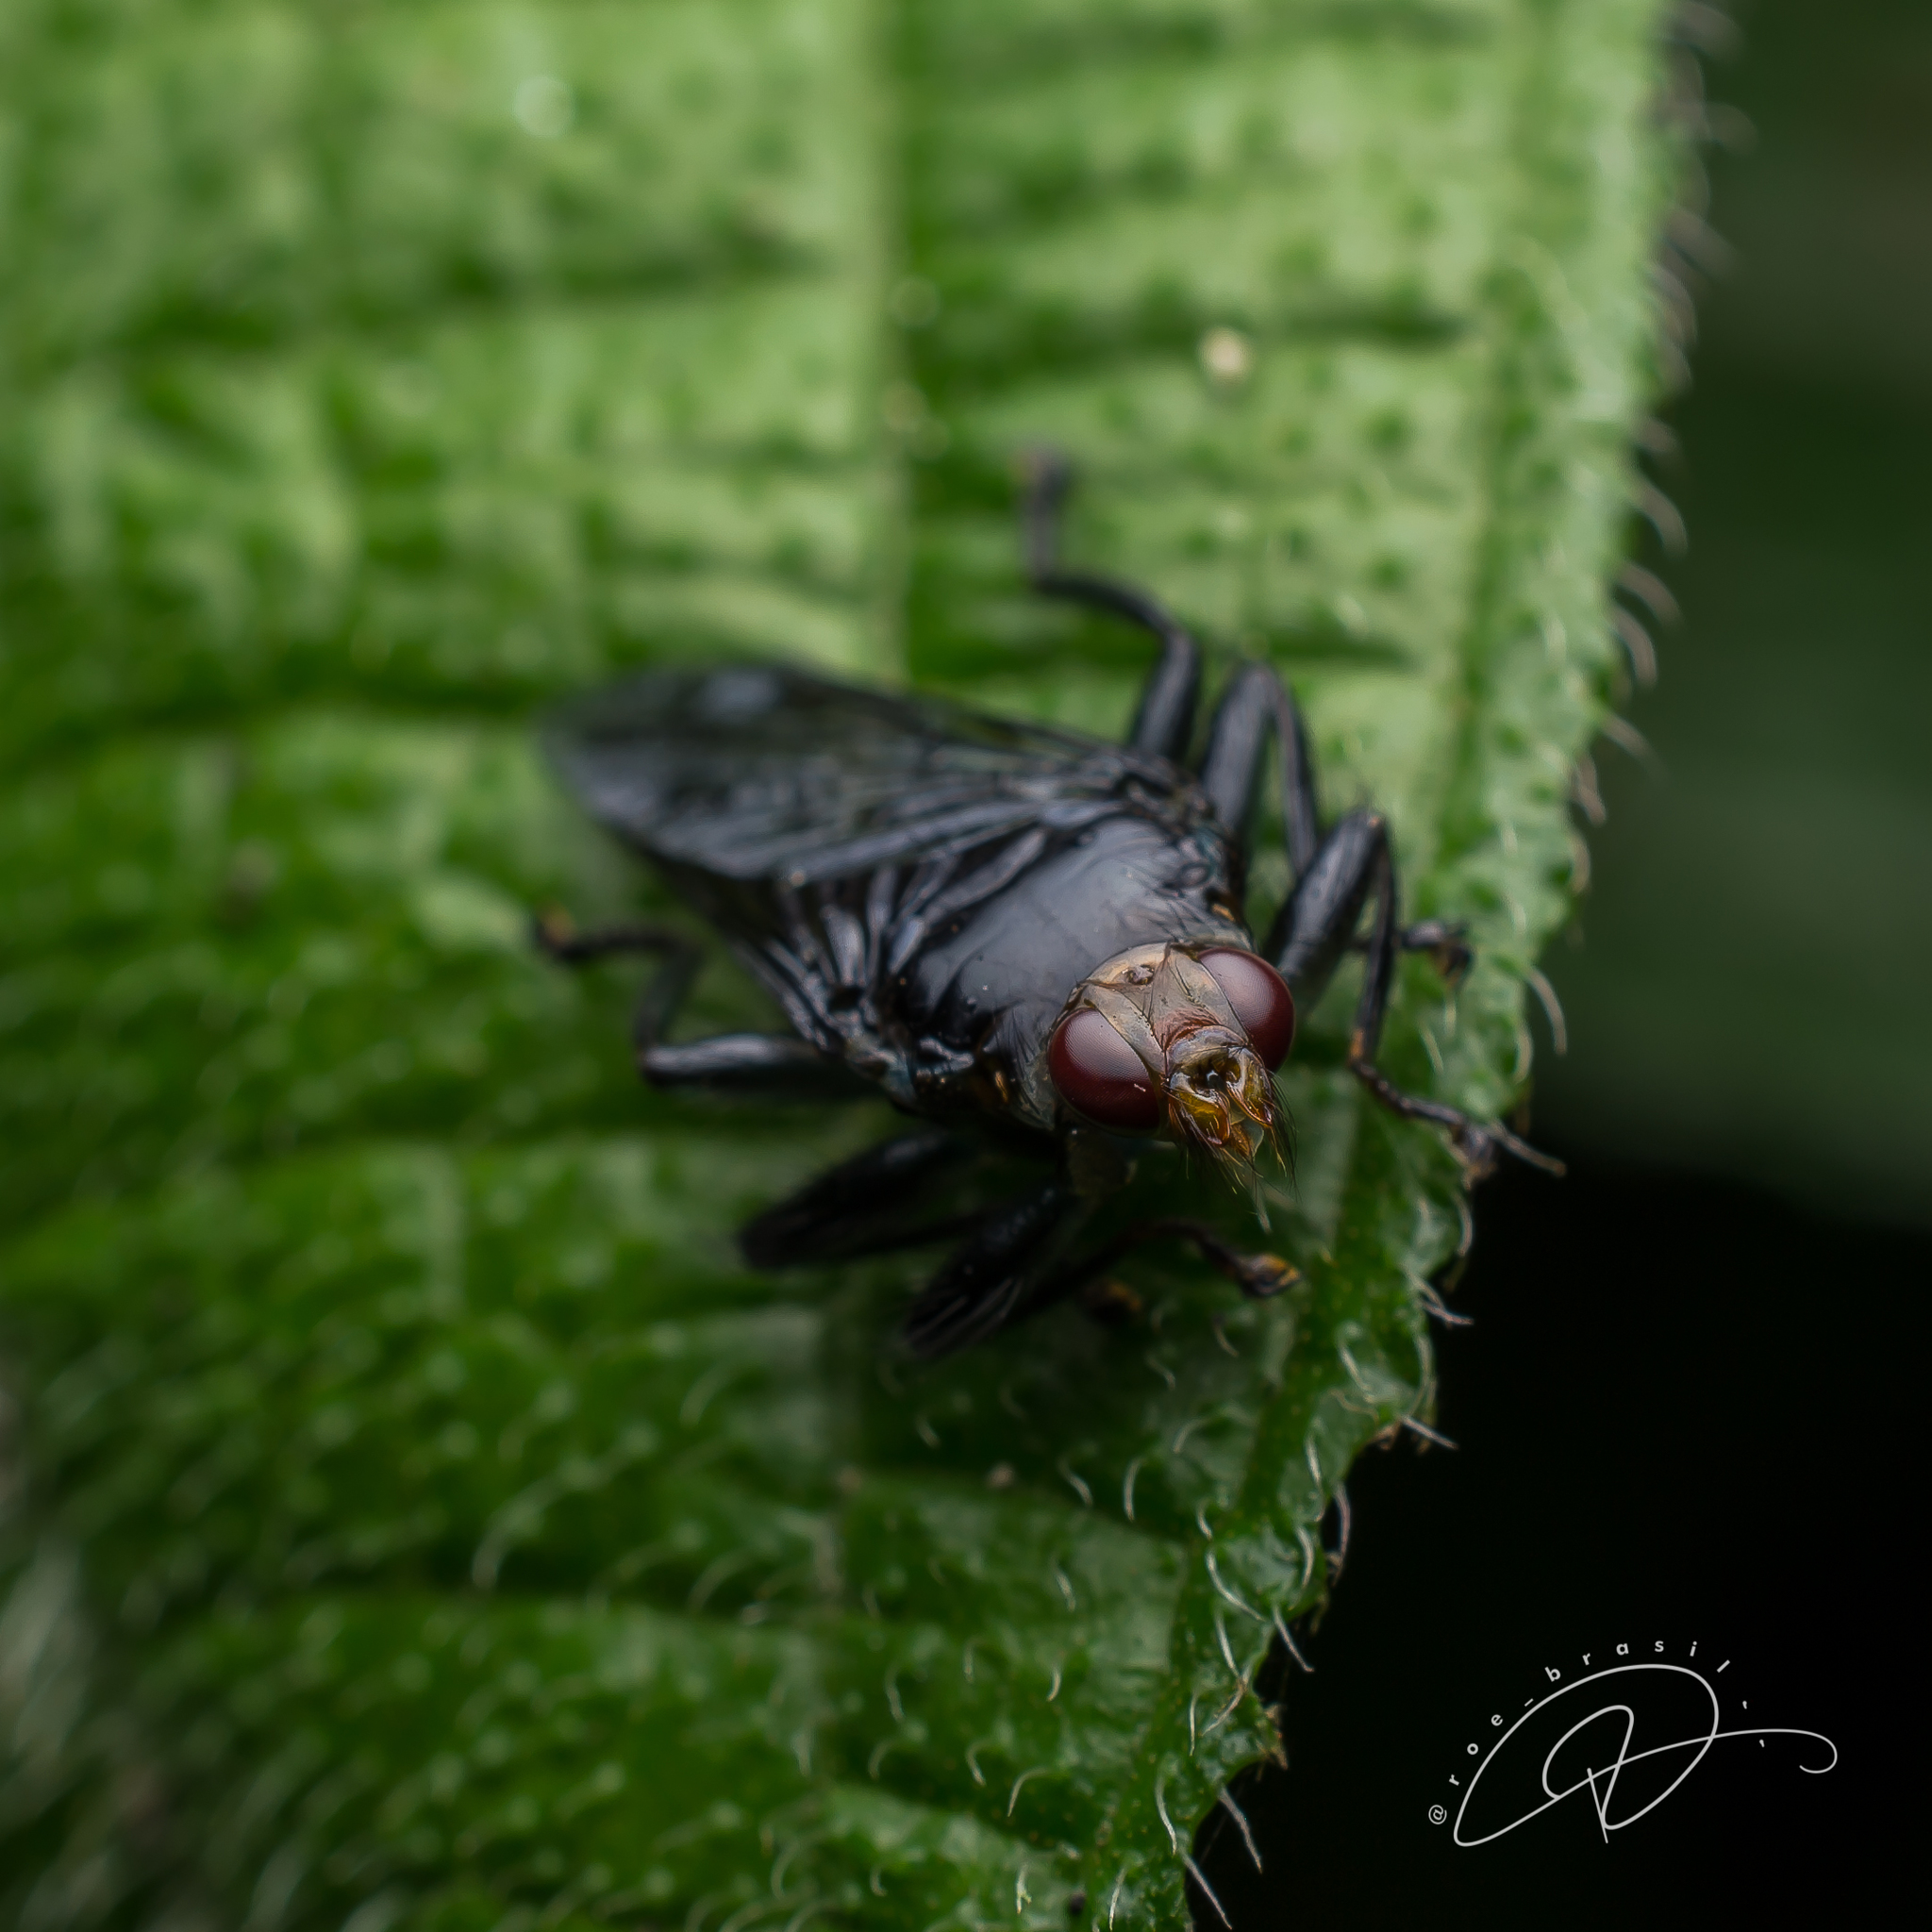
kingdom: Animalia
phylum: Arthropoda
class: Insecta
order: Diptera
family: Hippoboscidae
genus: Ornithoctona
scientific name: Ornithoctona erythrocephala
